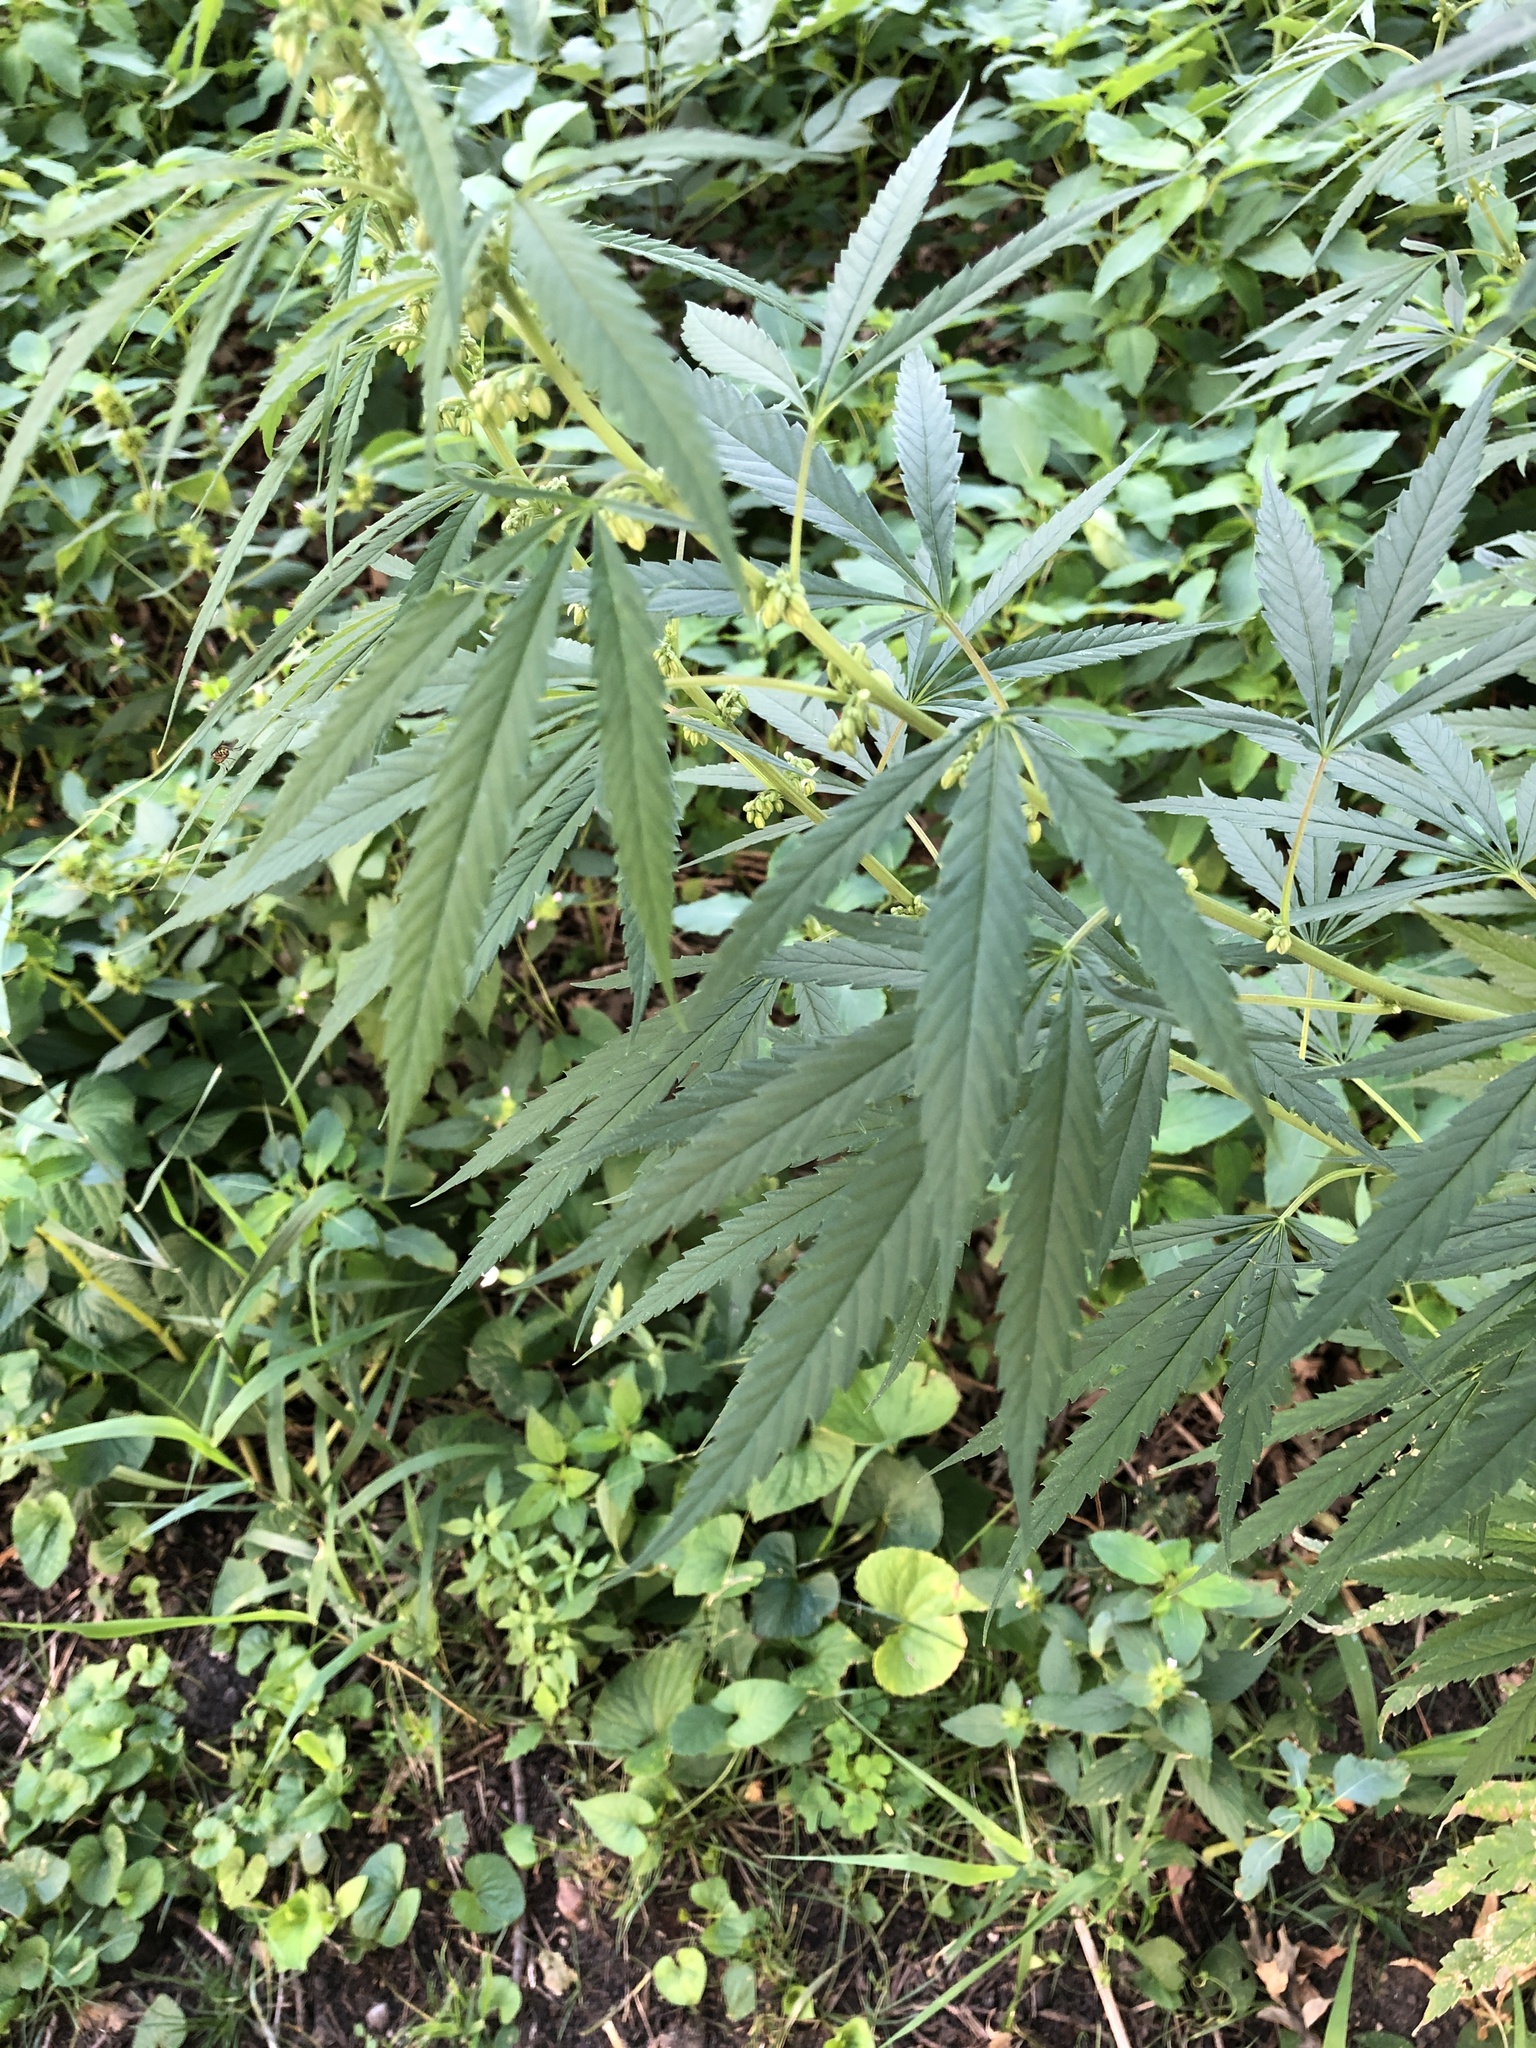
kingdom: Plantae
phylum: Tracheophyta
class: Magnoliopsida
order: Rosales
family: Cannabaceae
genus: Cannabis
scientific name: Cannabis sativa
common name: Hemp
